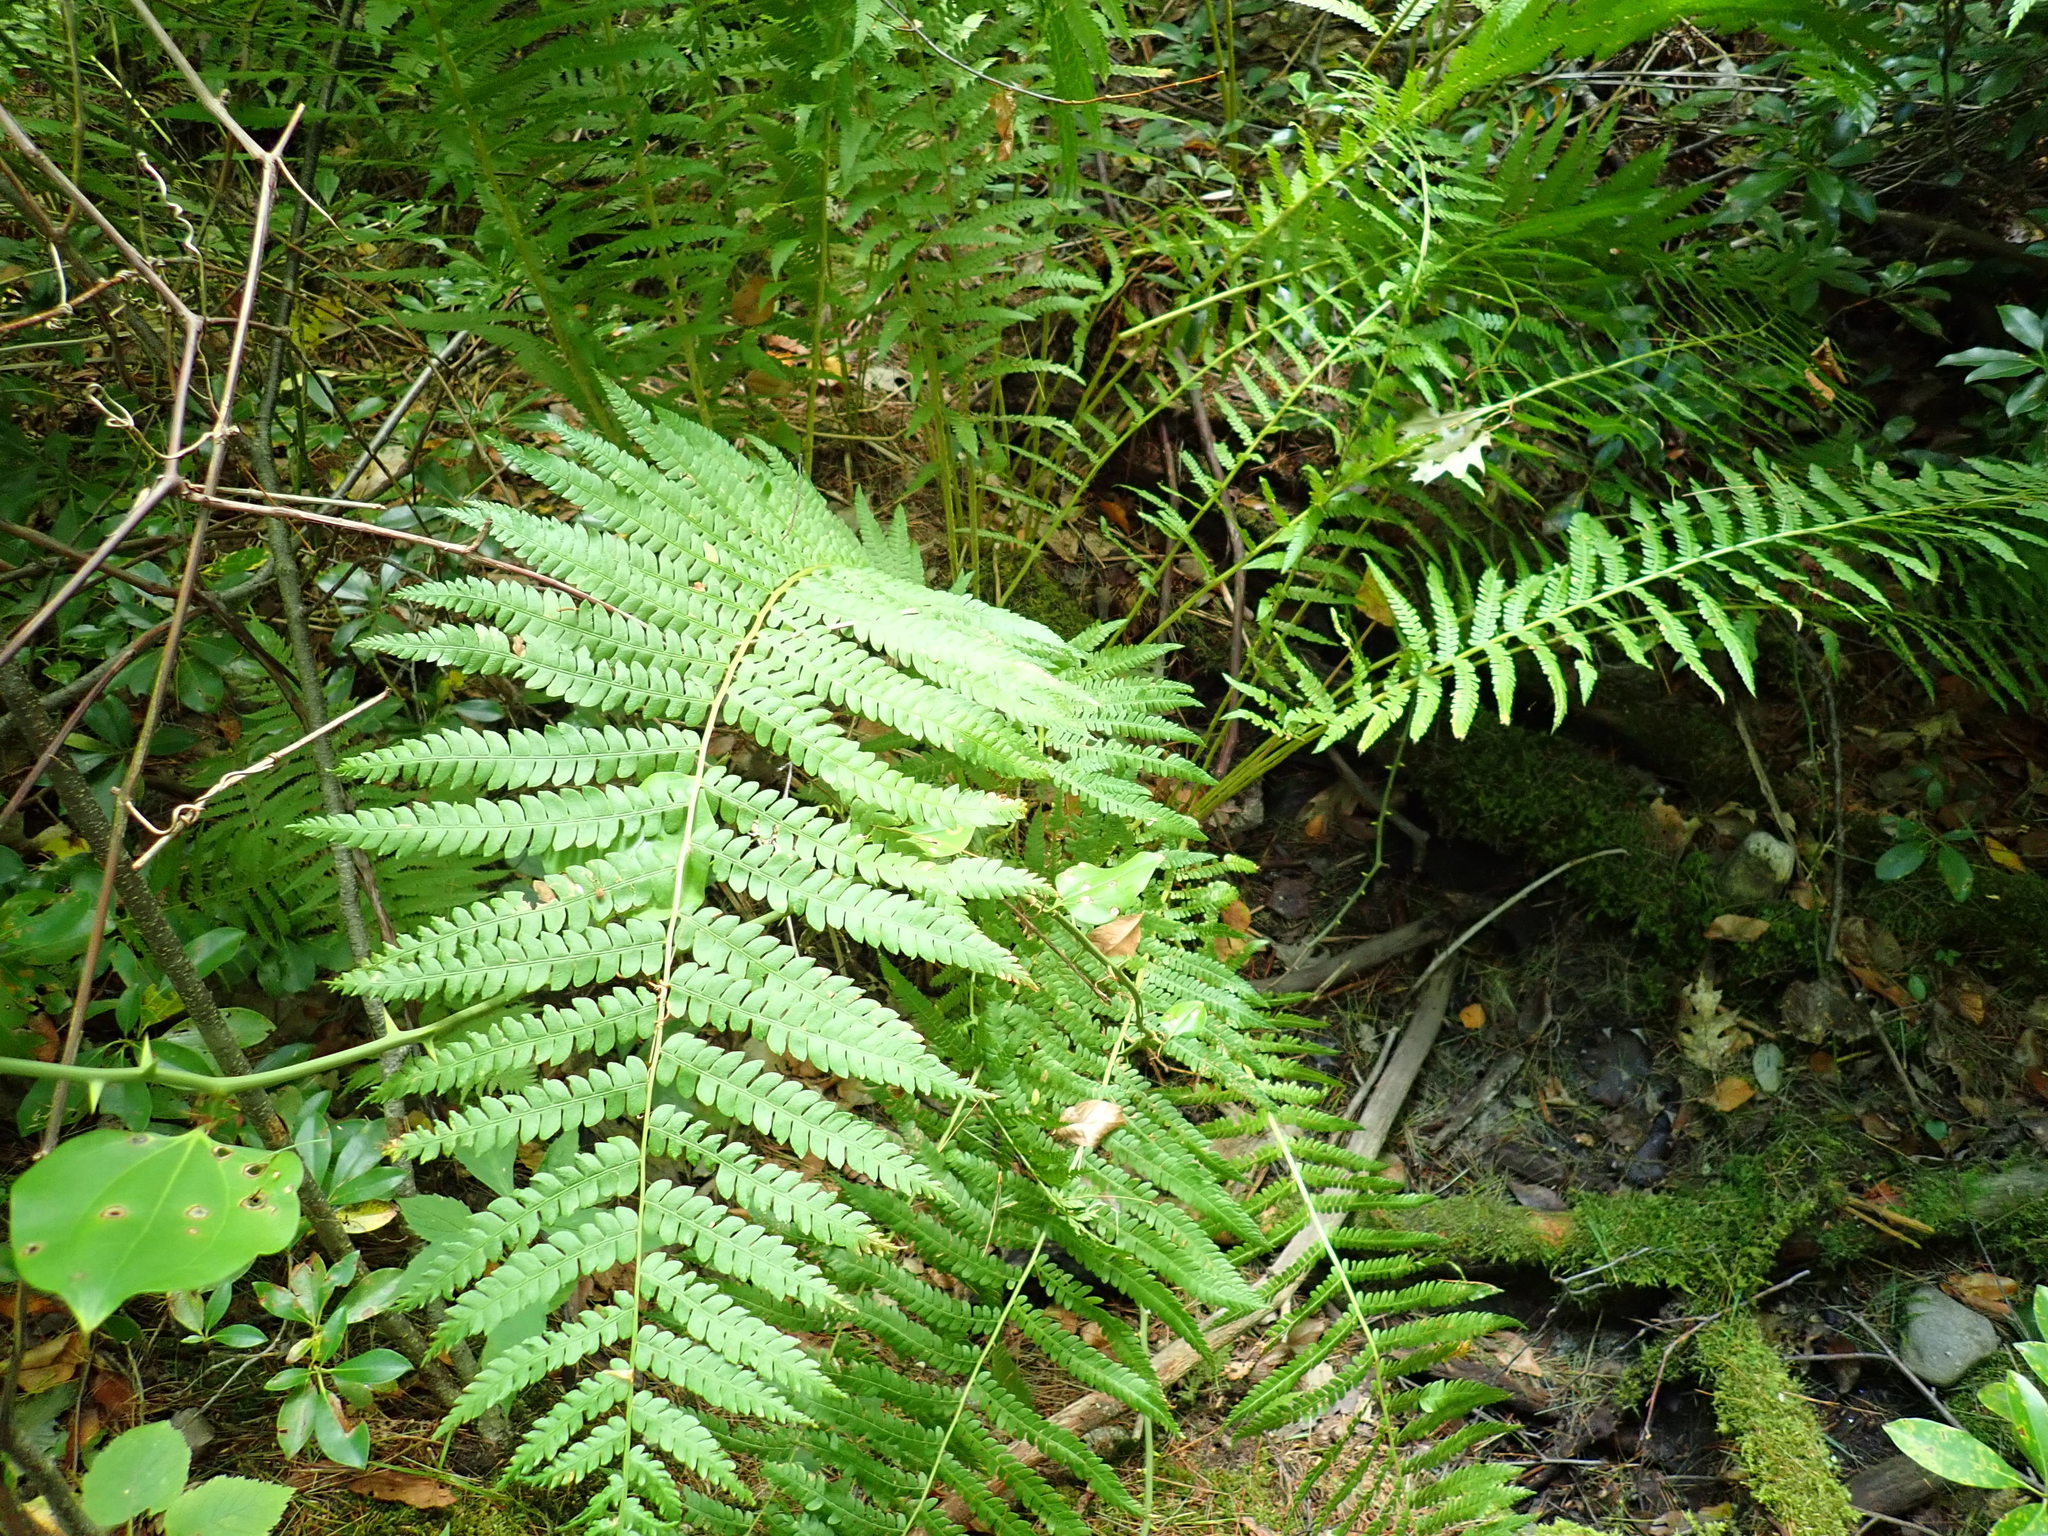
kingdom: Plantae
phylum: Tracheophyta
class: Polypodiopsida
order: Osmundales
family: Osmundaceae
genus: Osmundastrum
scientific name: Osmundastrum cinnamomeum
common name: Cinnamon fern
